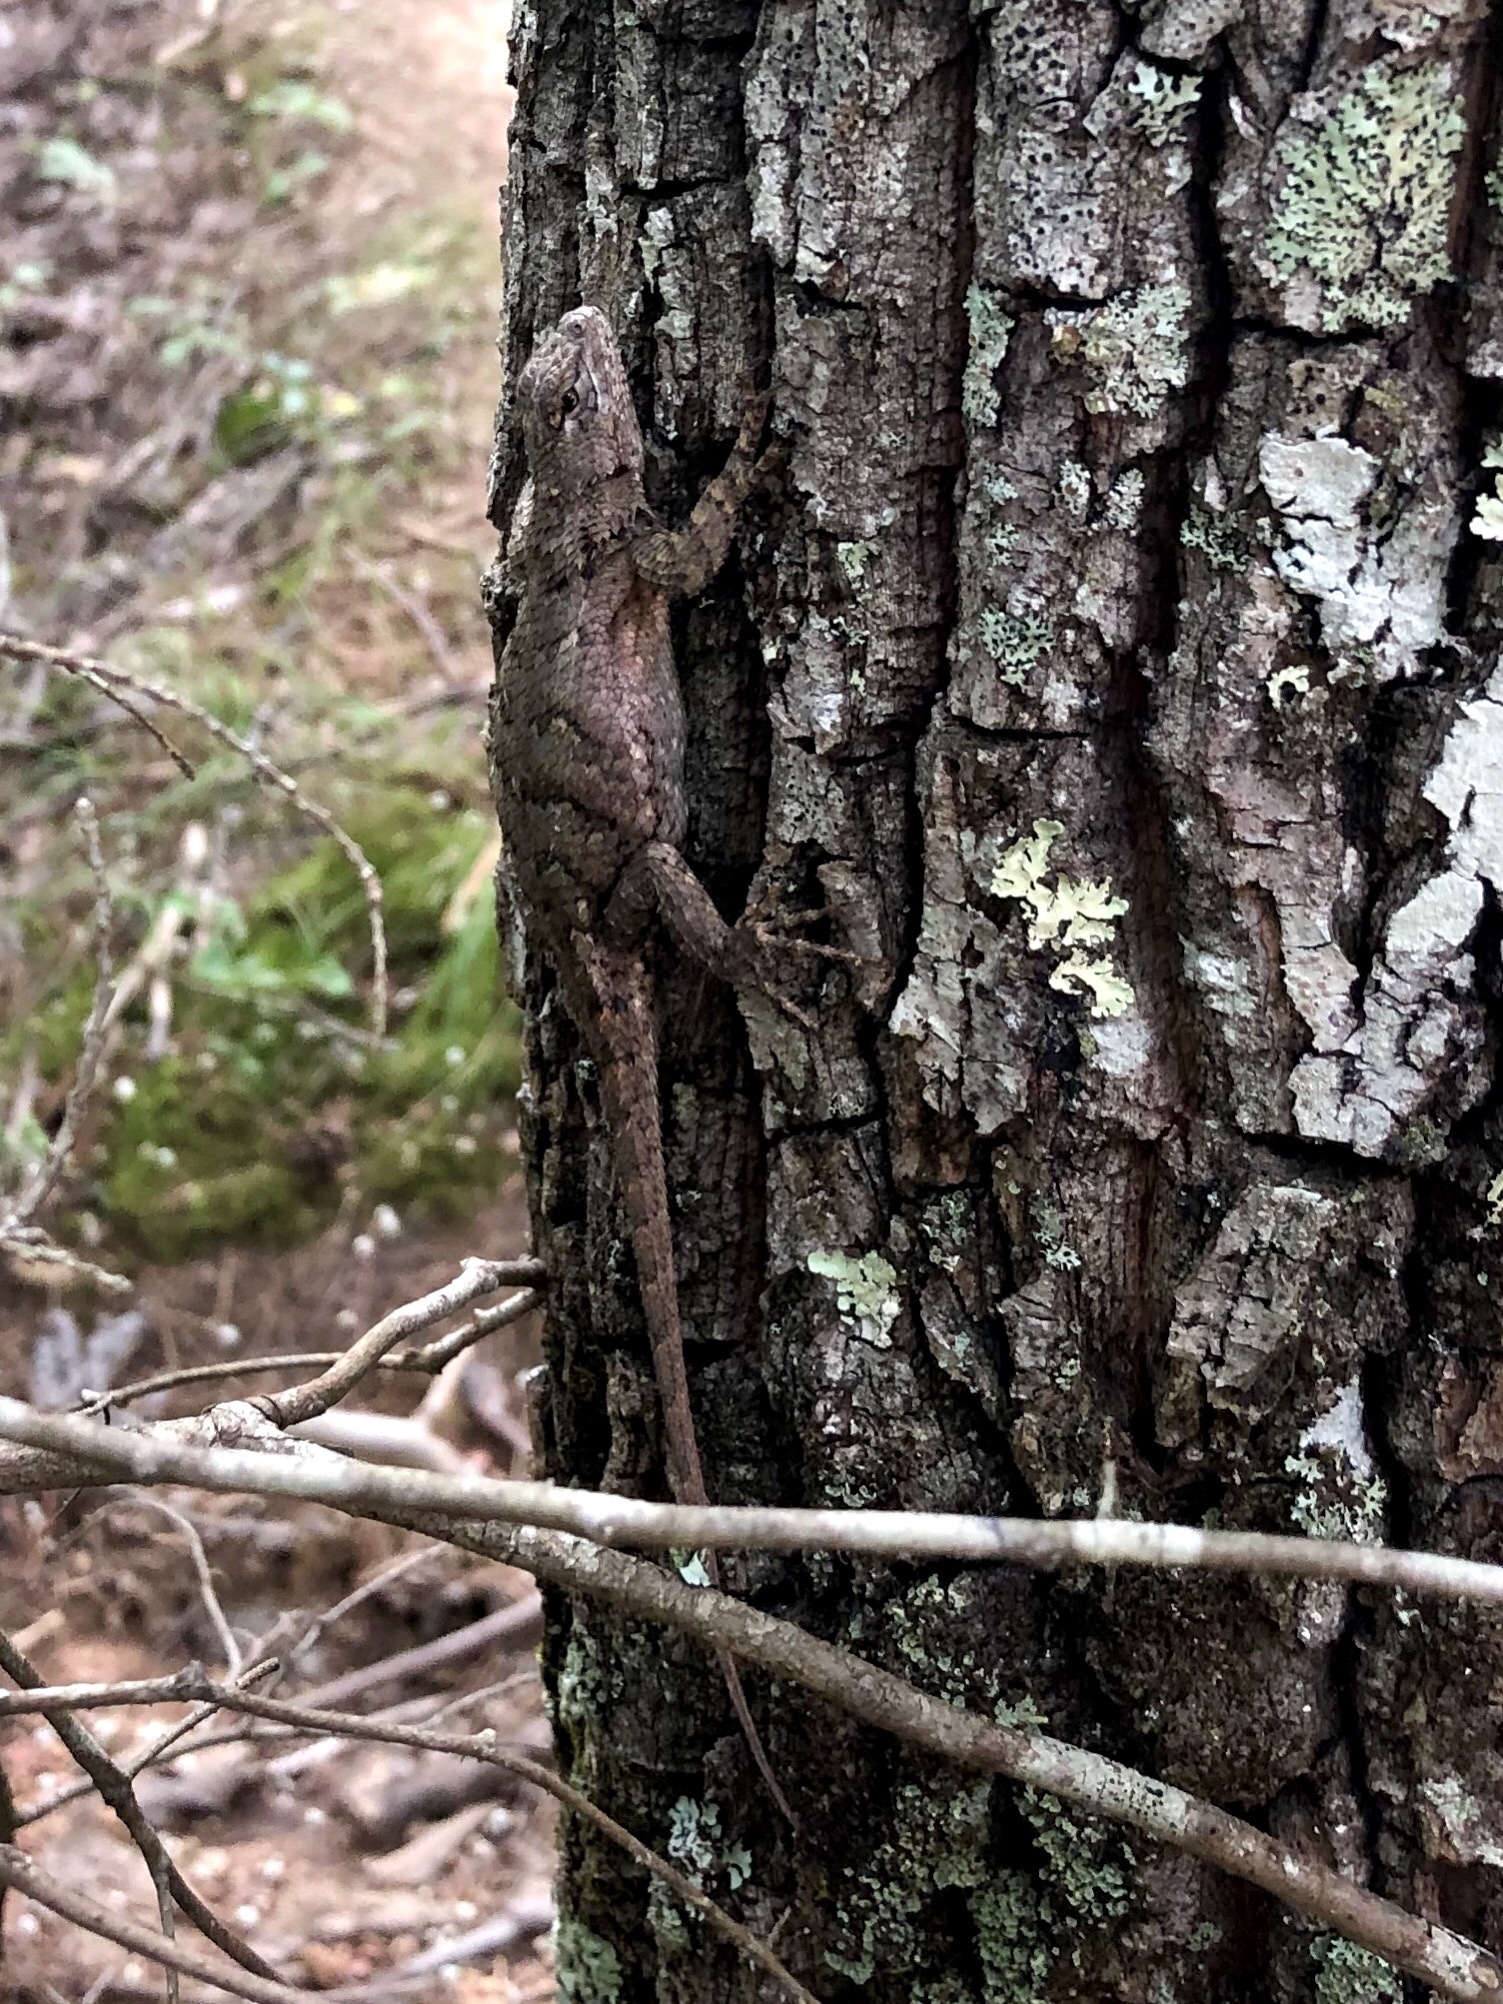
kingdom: Animalia
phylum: Chordata
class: Squamata
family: Phrynosomatidae
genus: Sceloporus
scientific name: Sceloporus undulatus
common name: Eastern fence lizard
